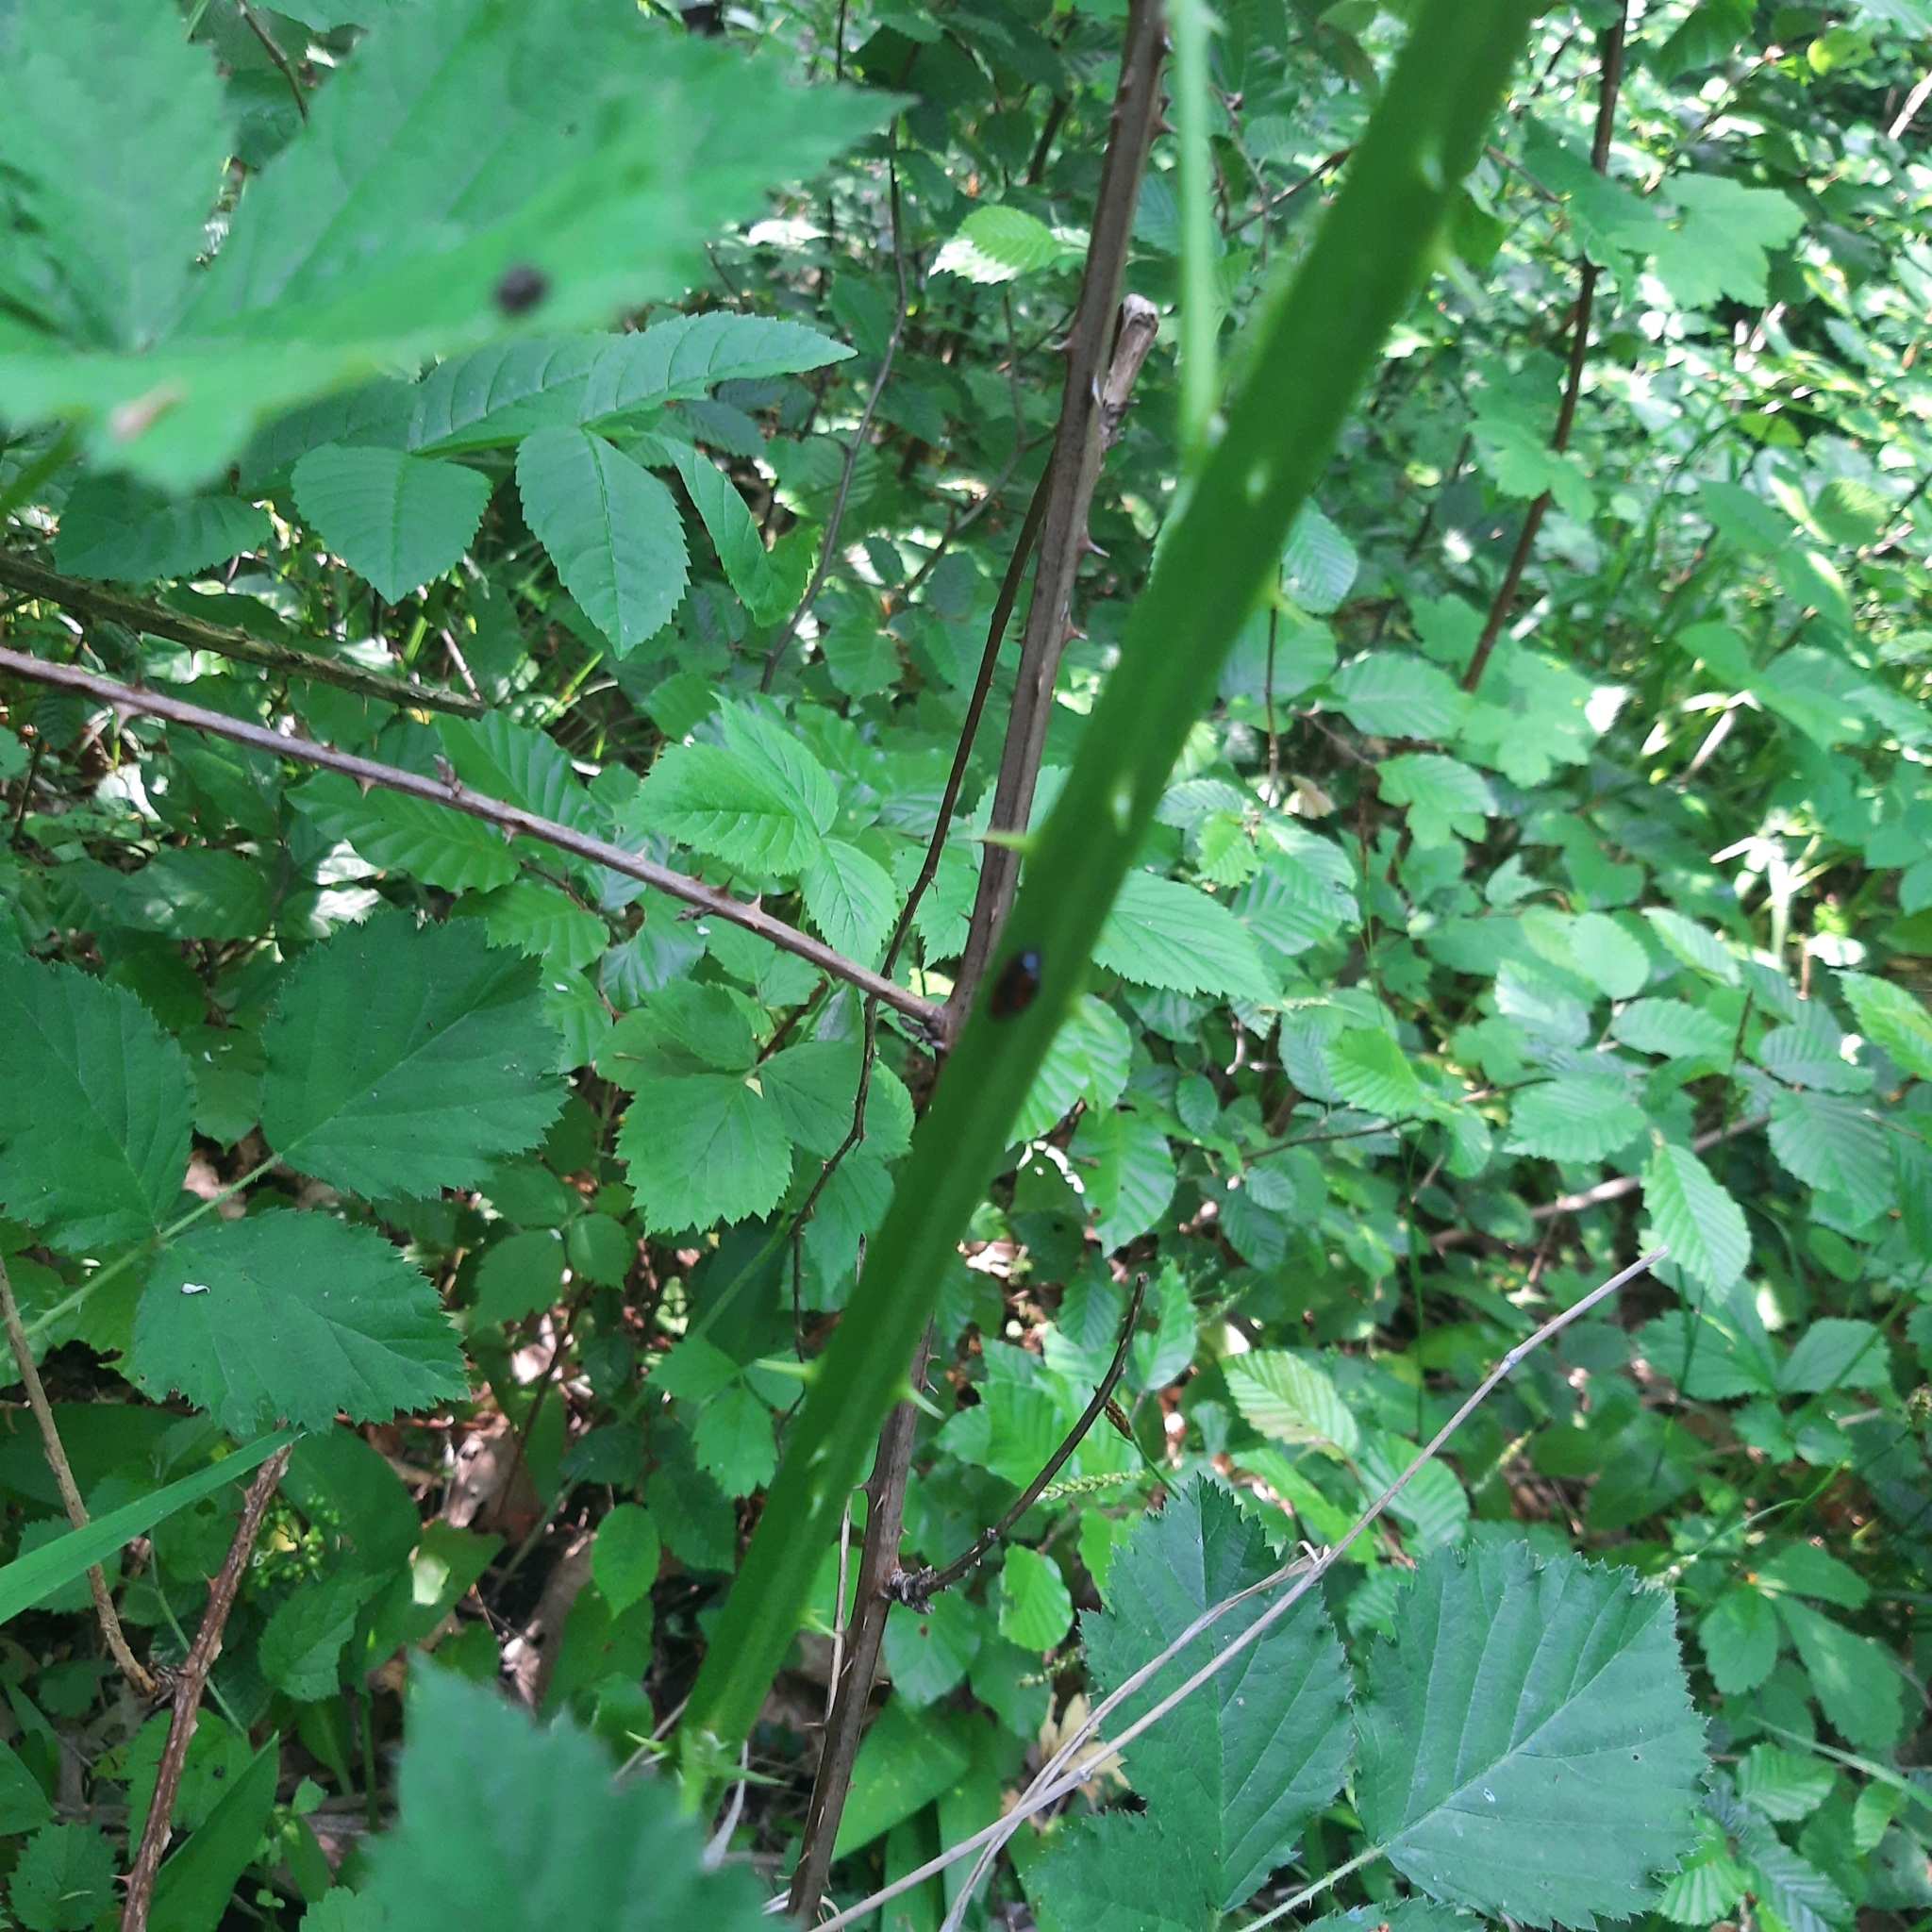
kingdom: Animalia
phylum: Arthropoda
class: Insecta
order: Hemiptera
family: Cercopidae
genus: Cercopis
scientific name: Cercopis
